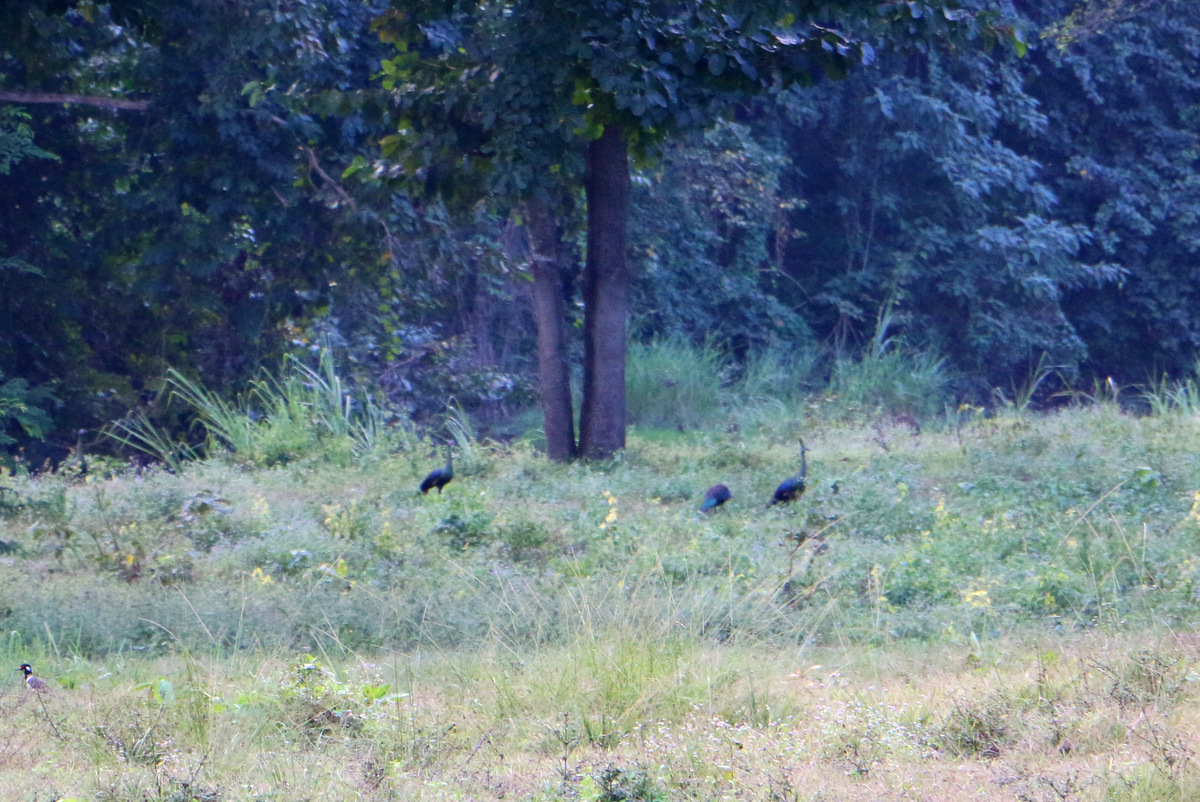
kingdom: Animalia
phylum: Chordata
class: Aves
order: Galliformes
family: Phasianidae
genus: Pavo
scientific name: Pavo muticus
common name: Green peafowl
